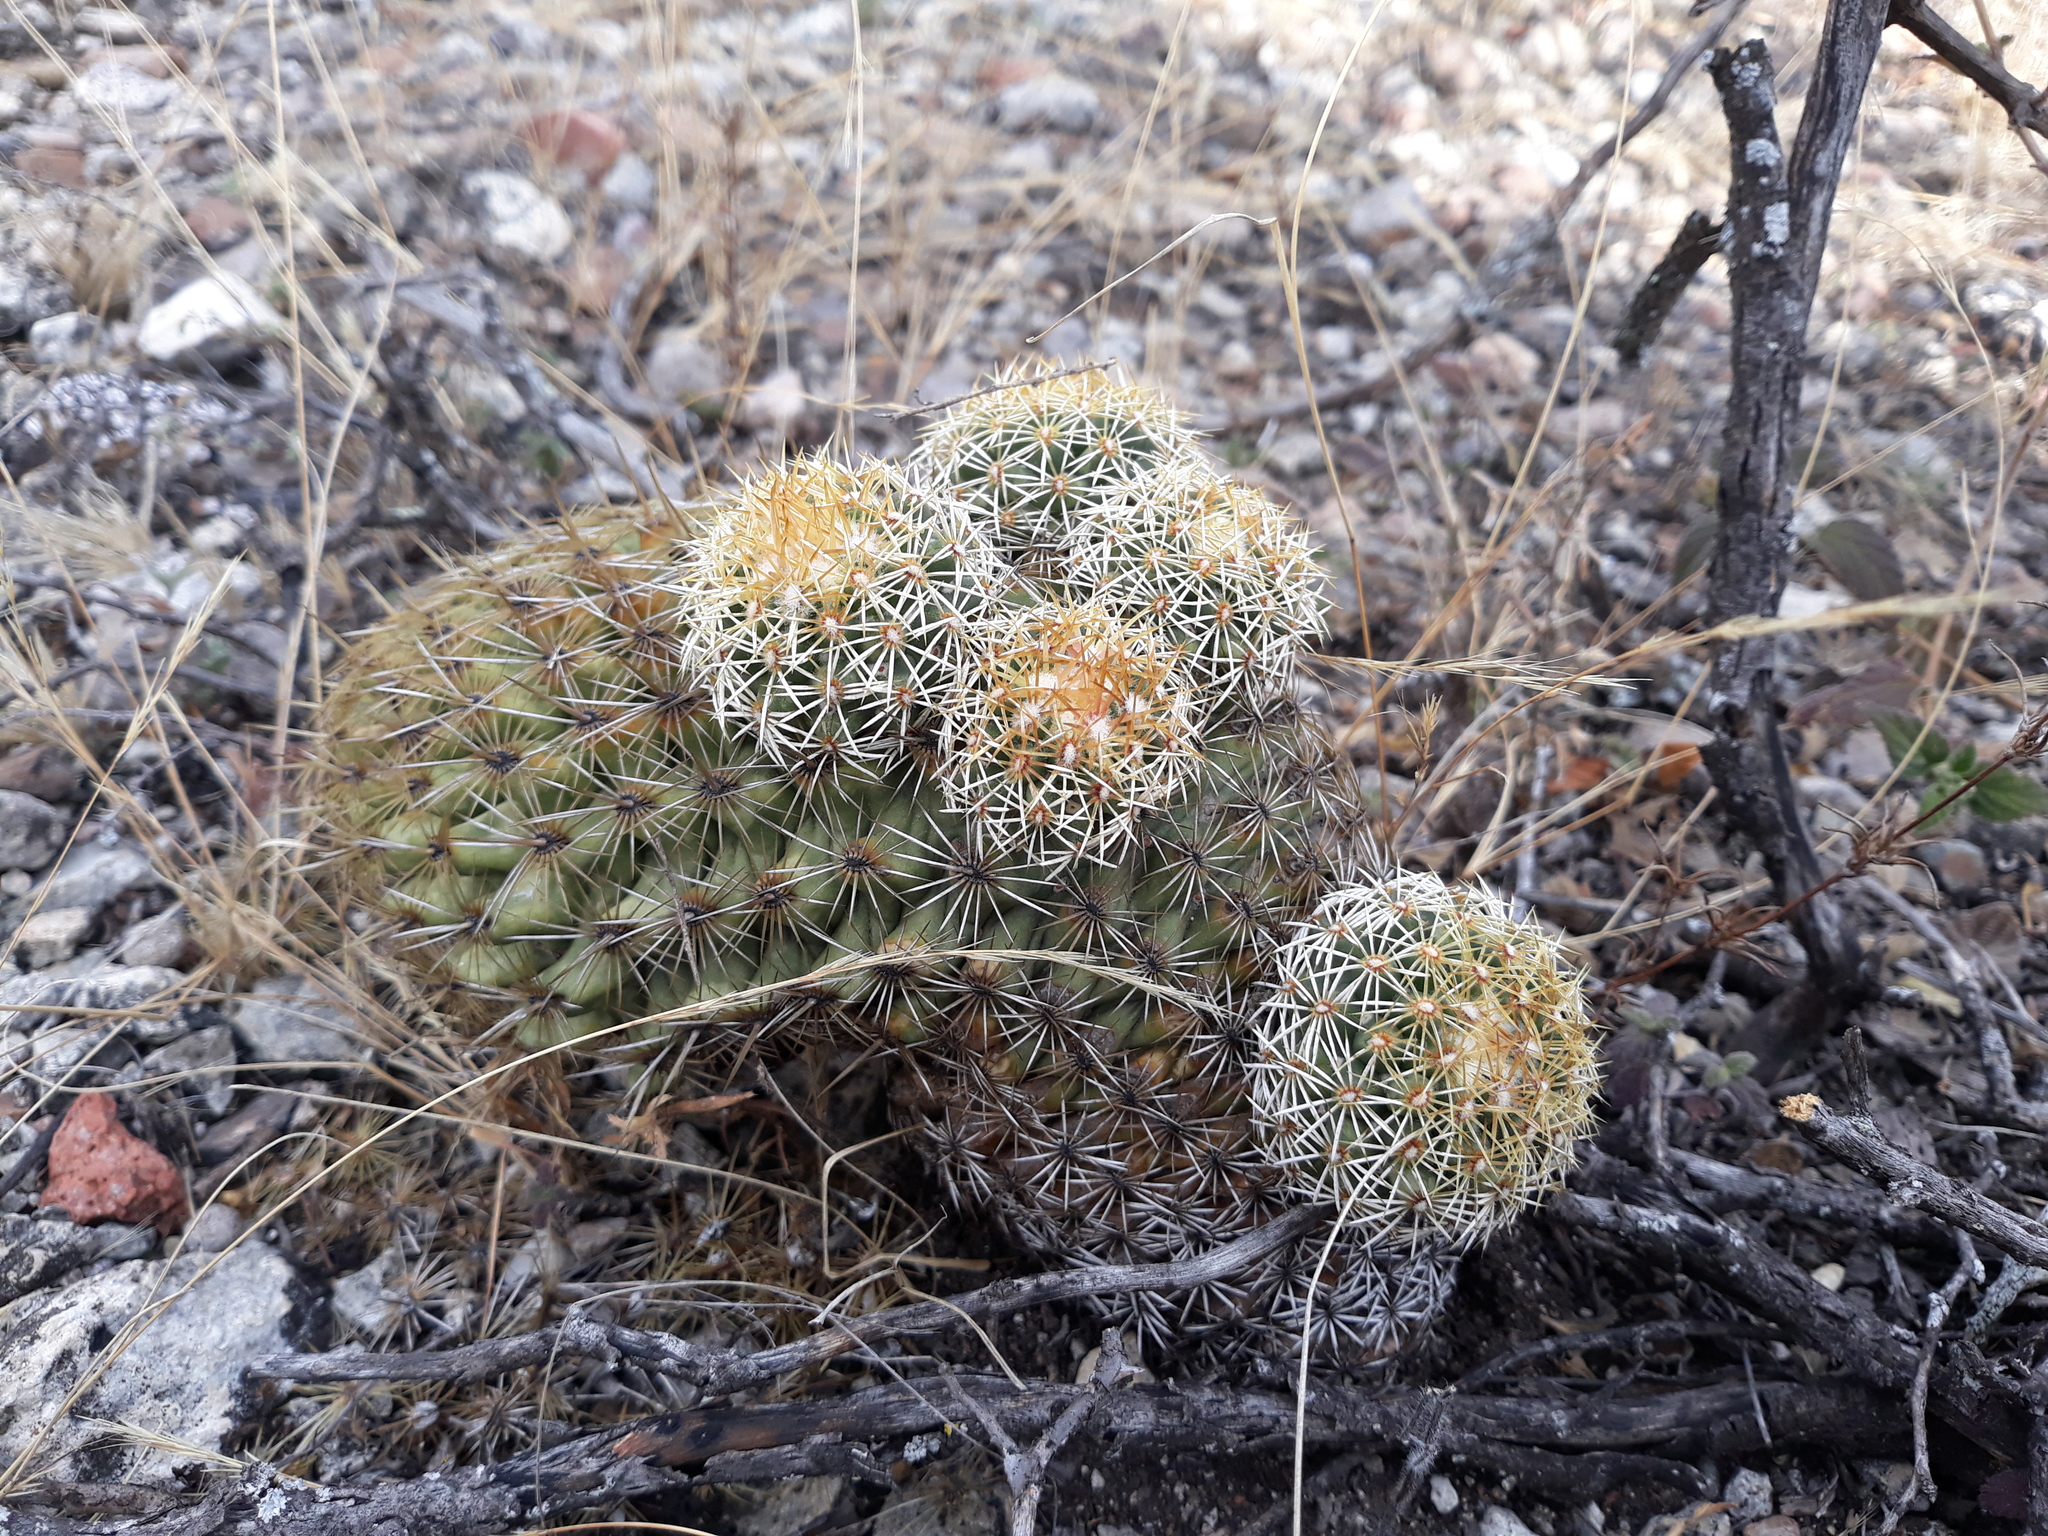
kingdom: Plantae
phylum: Tracheophyta
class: Magnoliopsida
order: Caryophyllales
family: Cactaceae
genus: Coryphantha
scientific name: Coryphantha erecta
